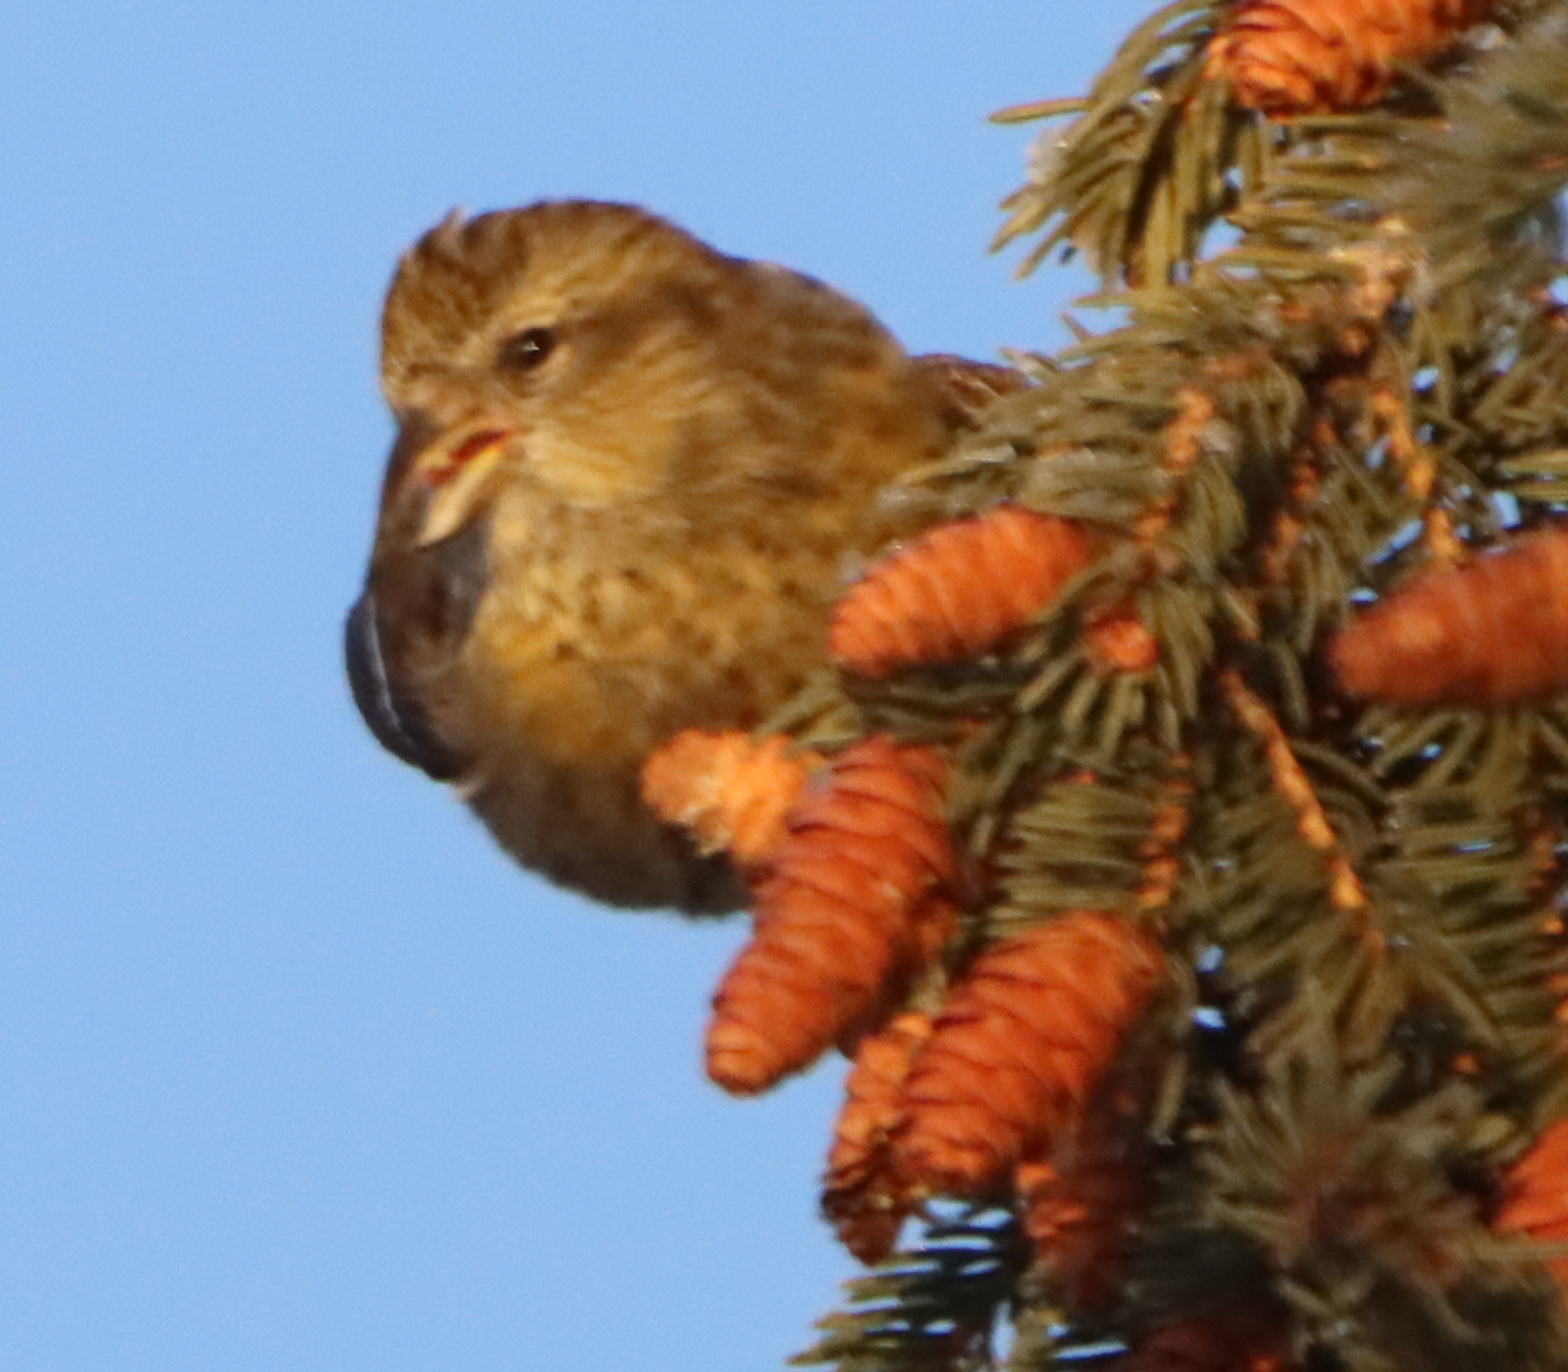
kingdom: Animalia
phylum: Chordata
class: Aves
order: Passeriformes
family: Fringillidae
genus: Loxia
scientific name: Loxia leucoptera
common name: Two-barred crossbill
